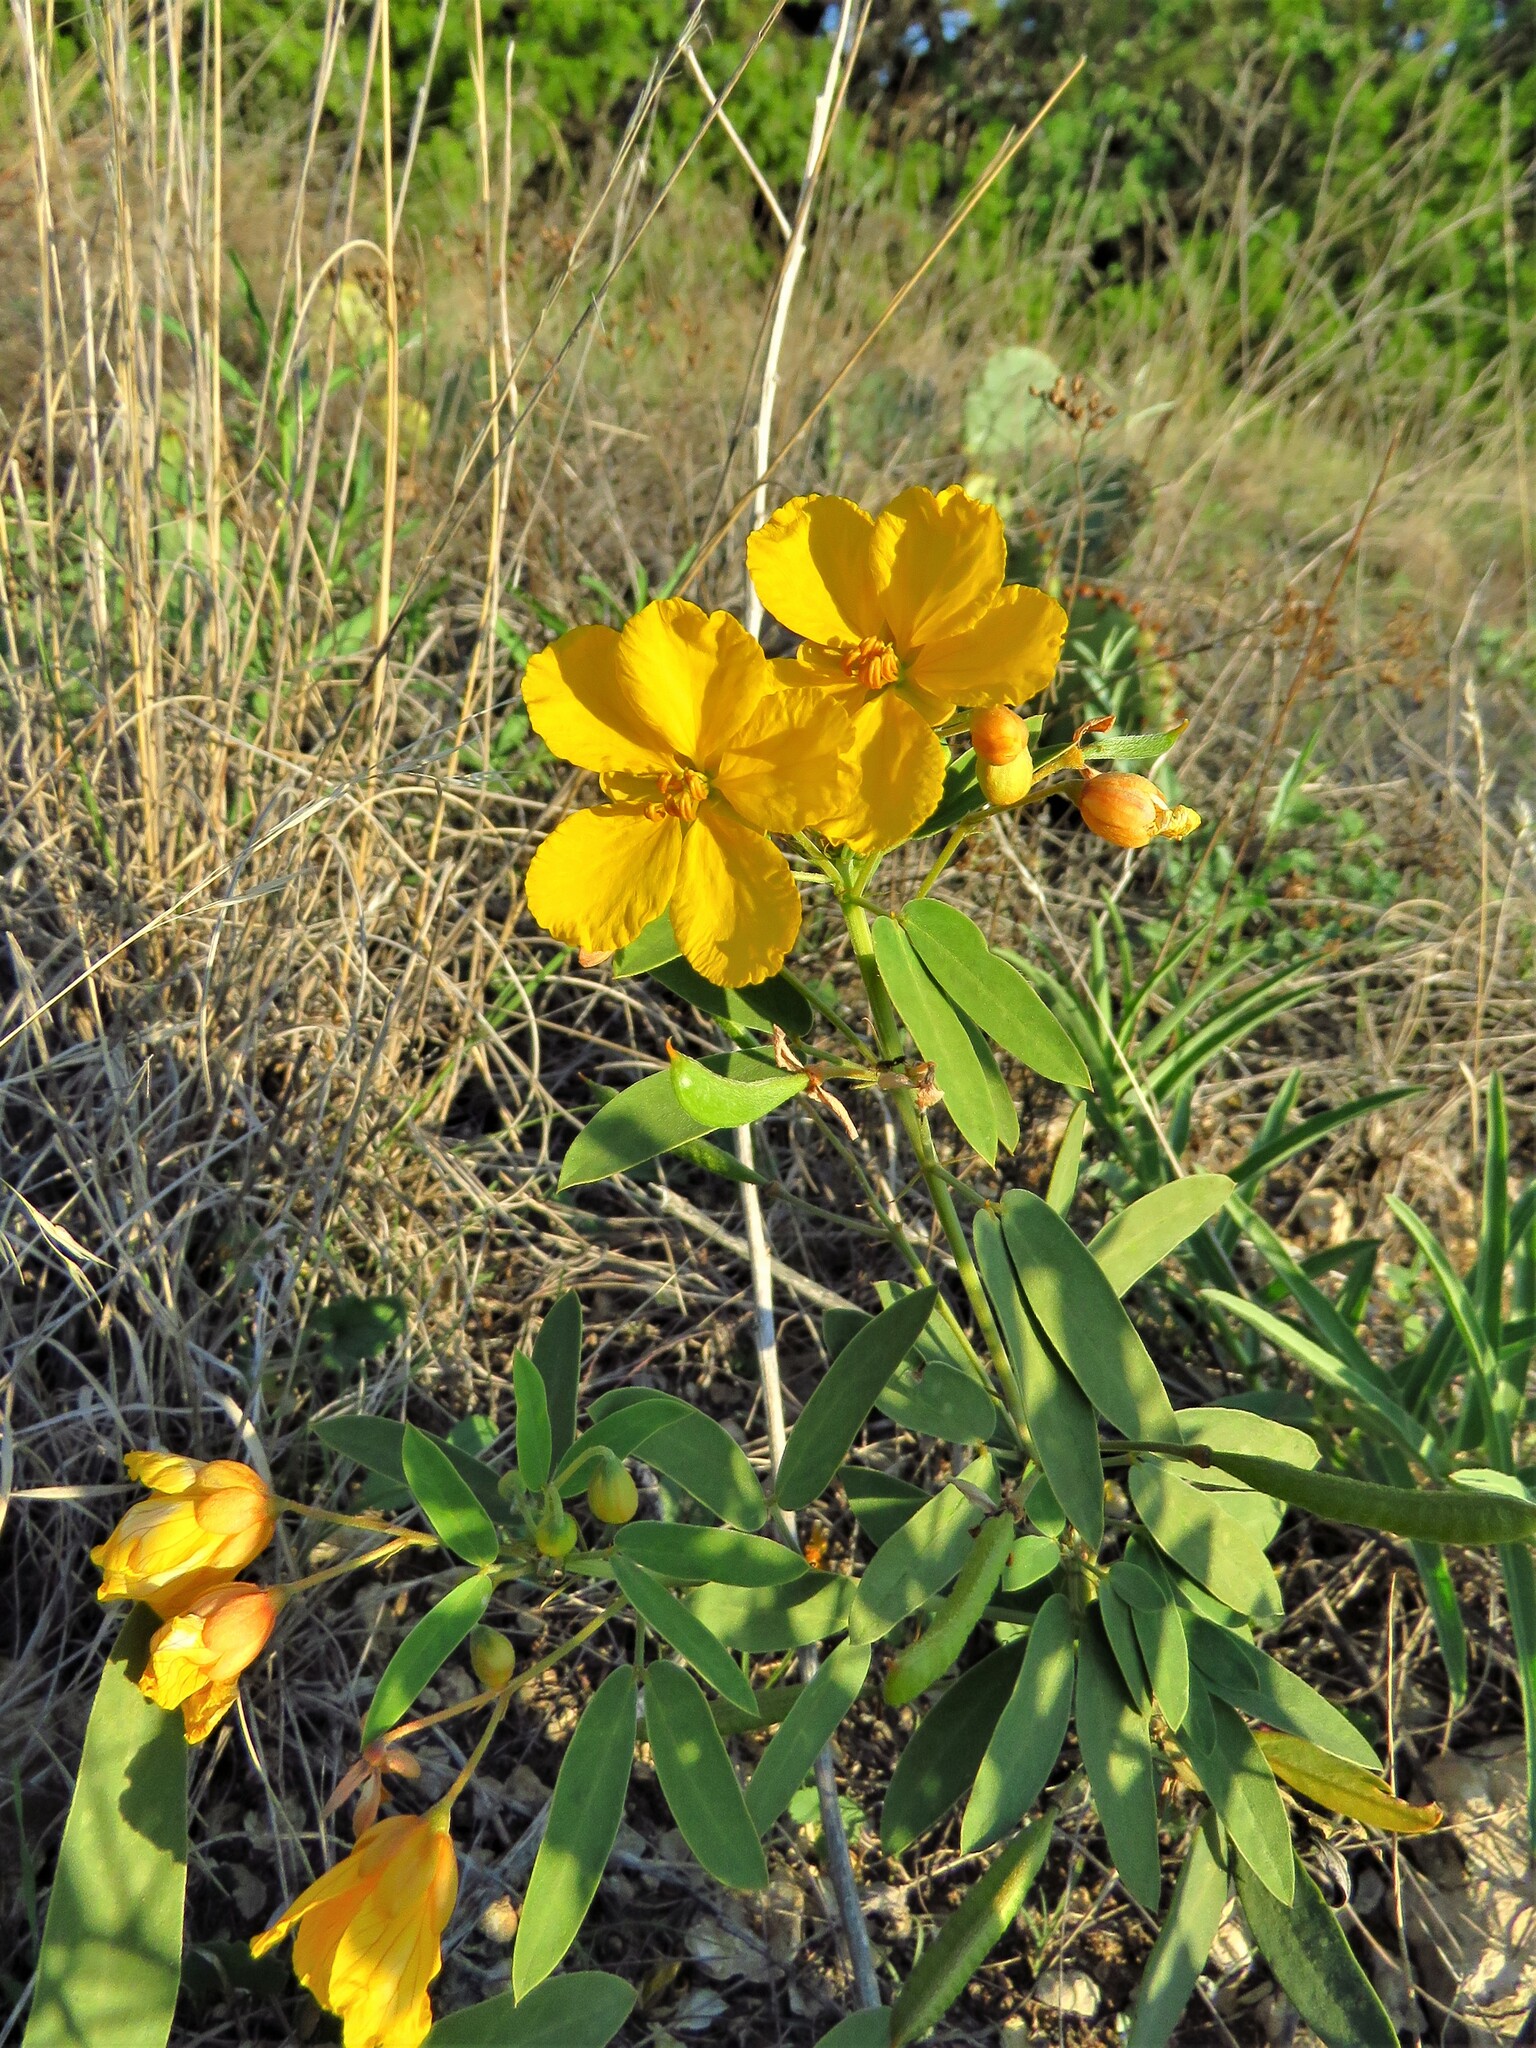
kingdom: Plantae
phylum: Tracheophyta
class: Magnoliopsida
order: Fabales
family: Fabaceae
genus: Senna
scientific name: Senna roemeriana
